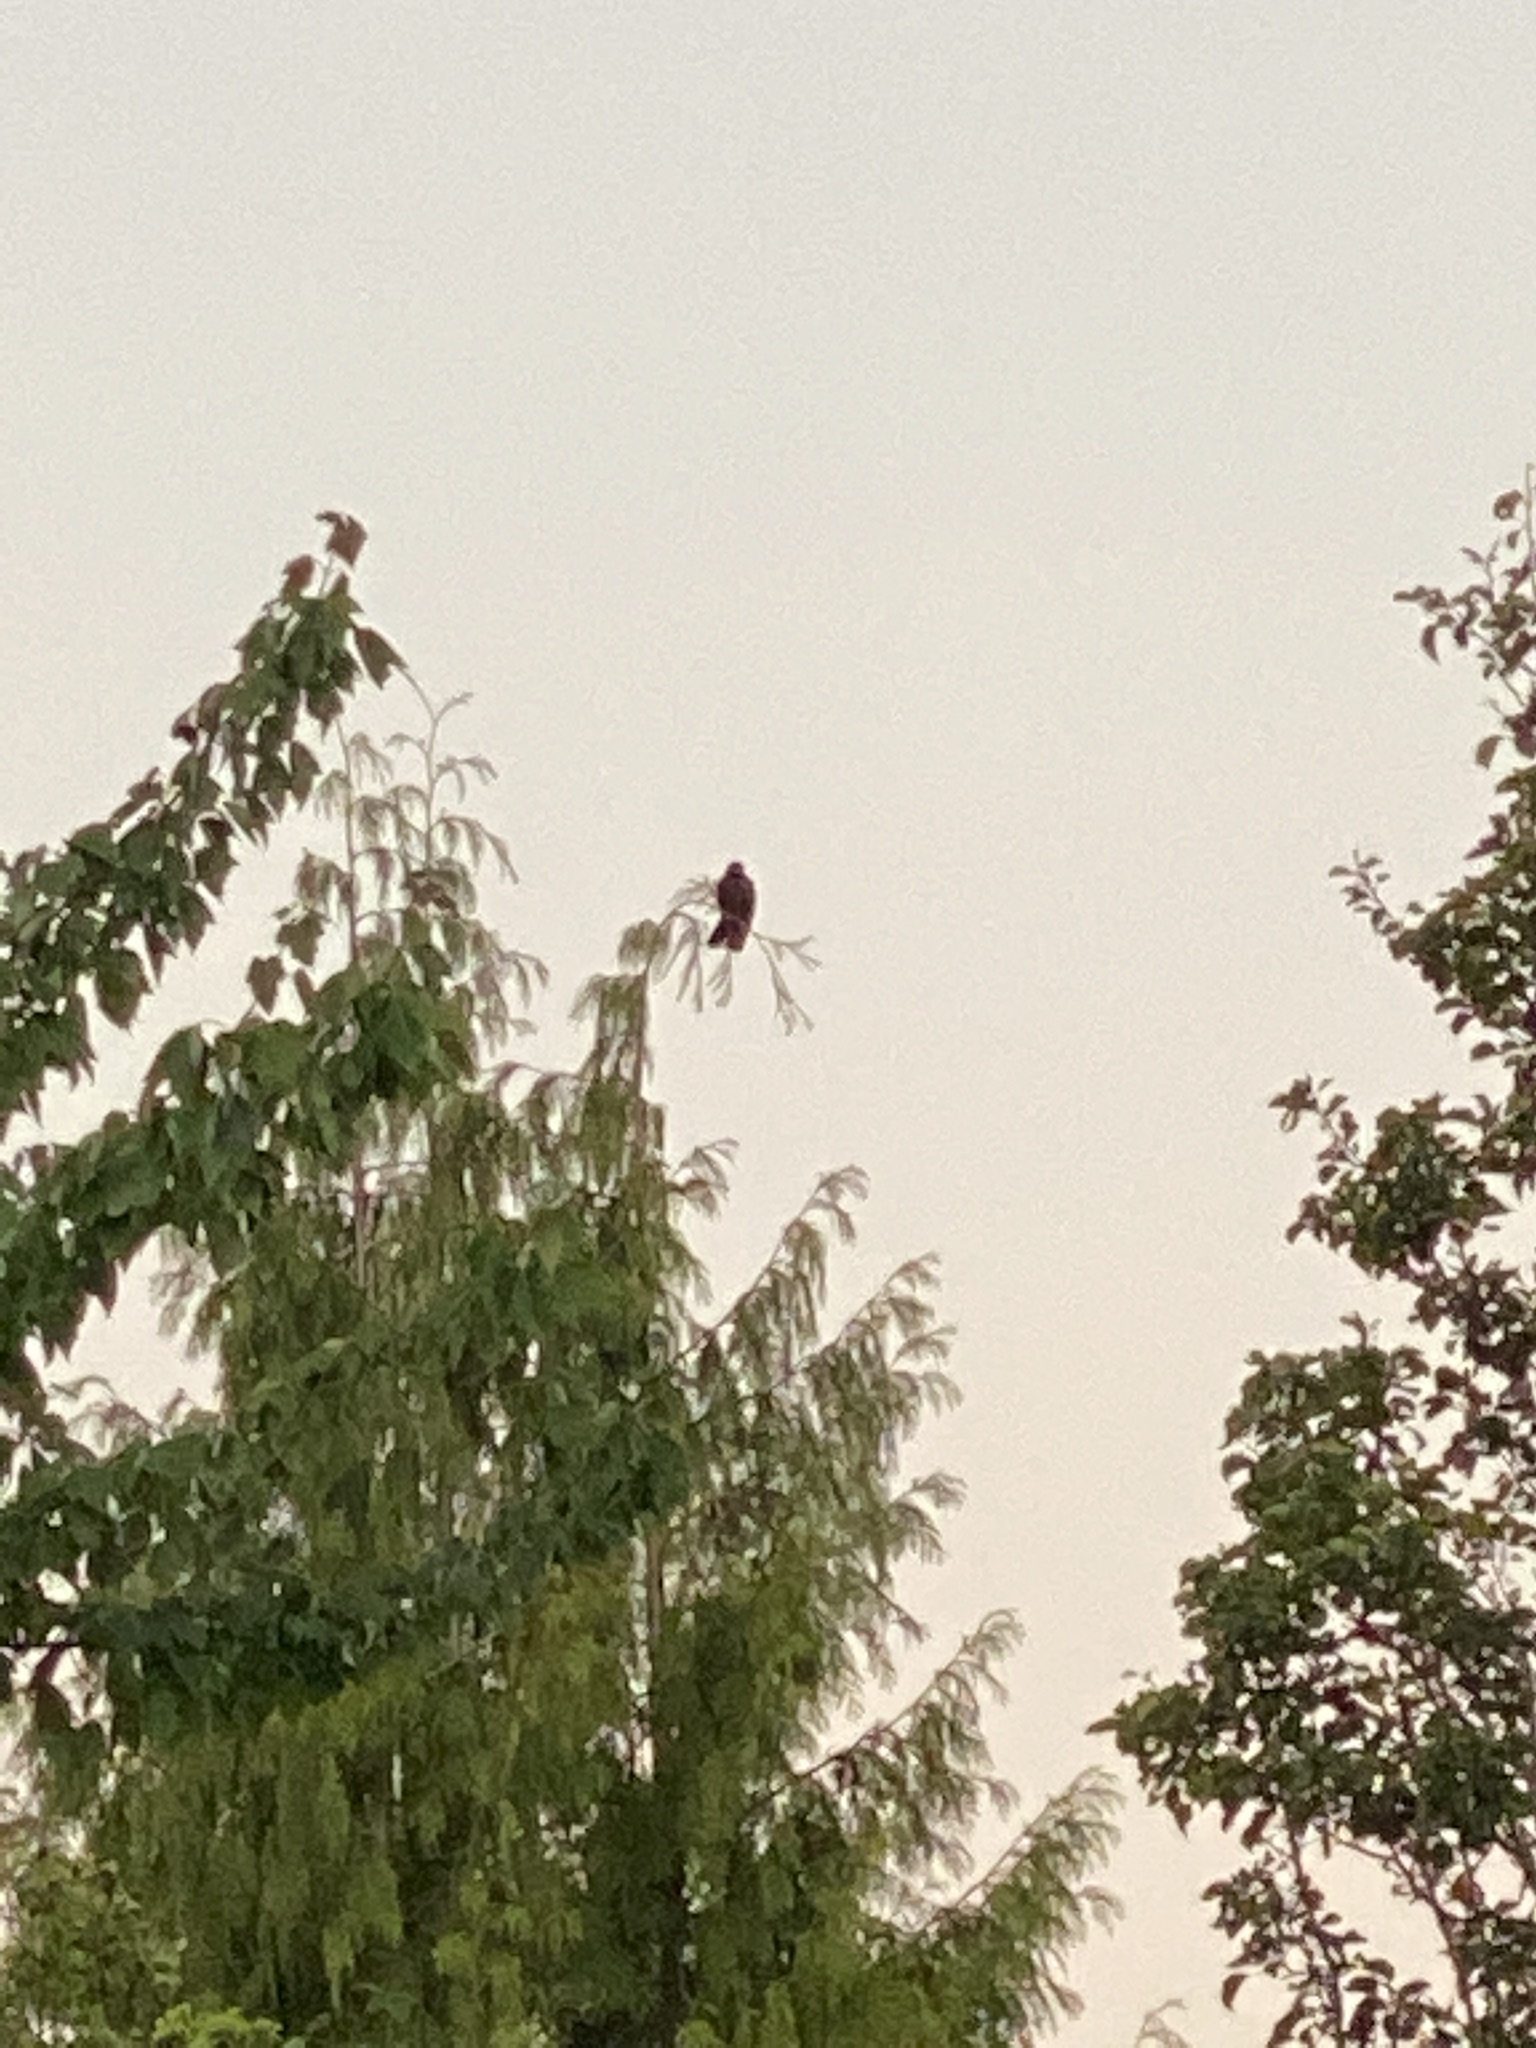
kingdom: Animalia
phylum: Chordata
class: Aves
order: Passeriformes
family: Corvidae
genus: Corvus
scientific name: Corvus brachyrhynchos
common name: American crow
